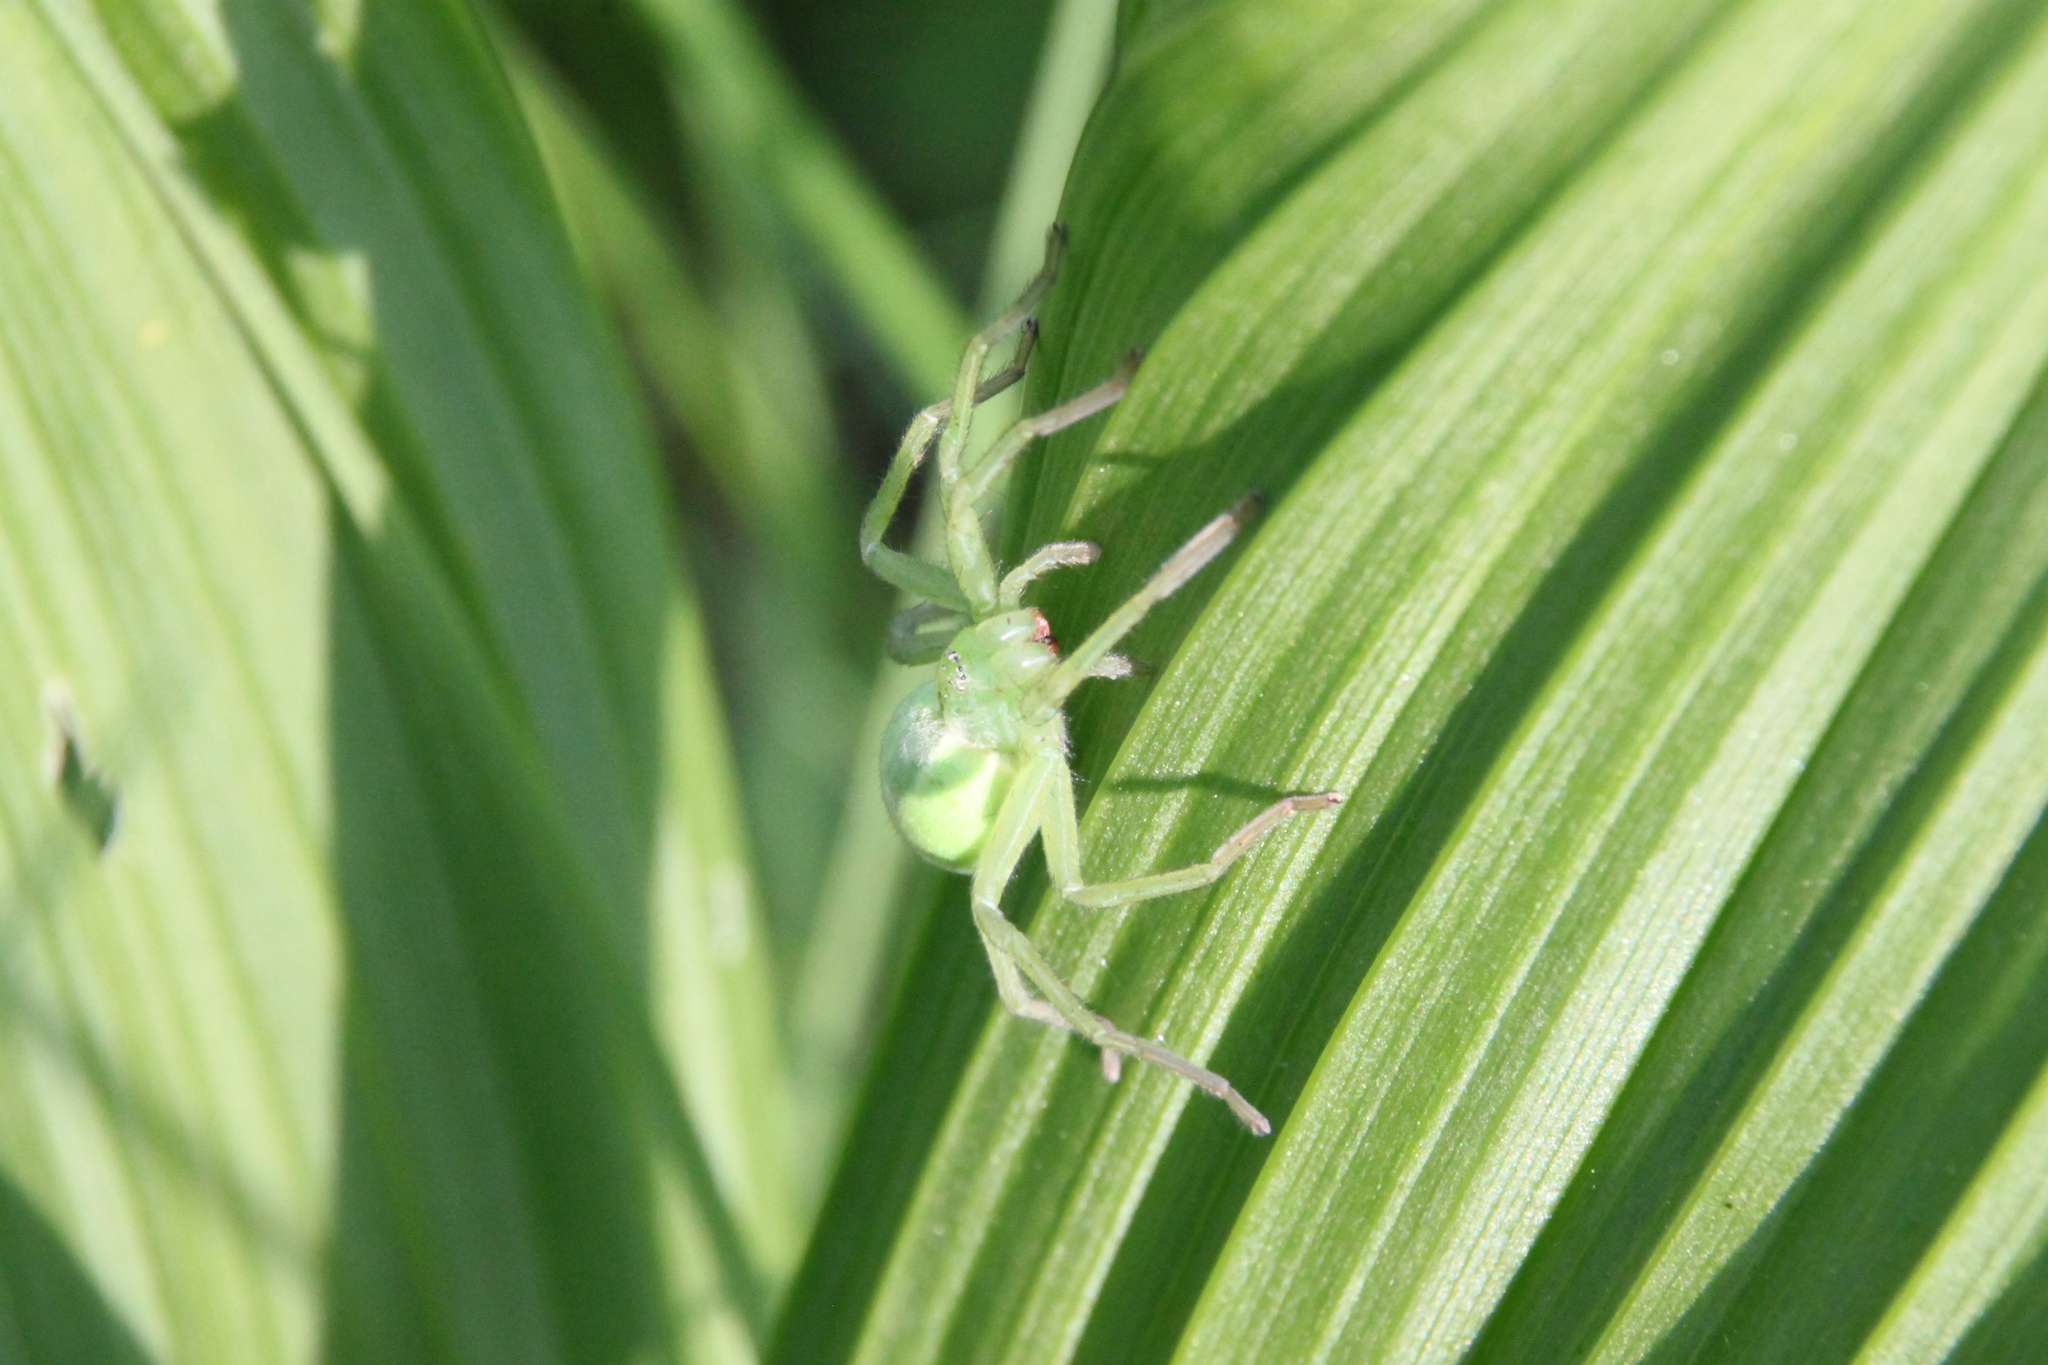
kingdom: Animalia
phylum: Arthropoda
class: Arachnida
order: Araneae
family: Sparassidae
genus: Micrommata
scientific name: Micrommata virescens
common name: Green spider
